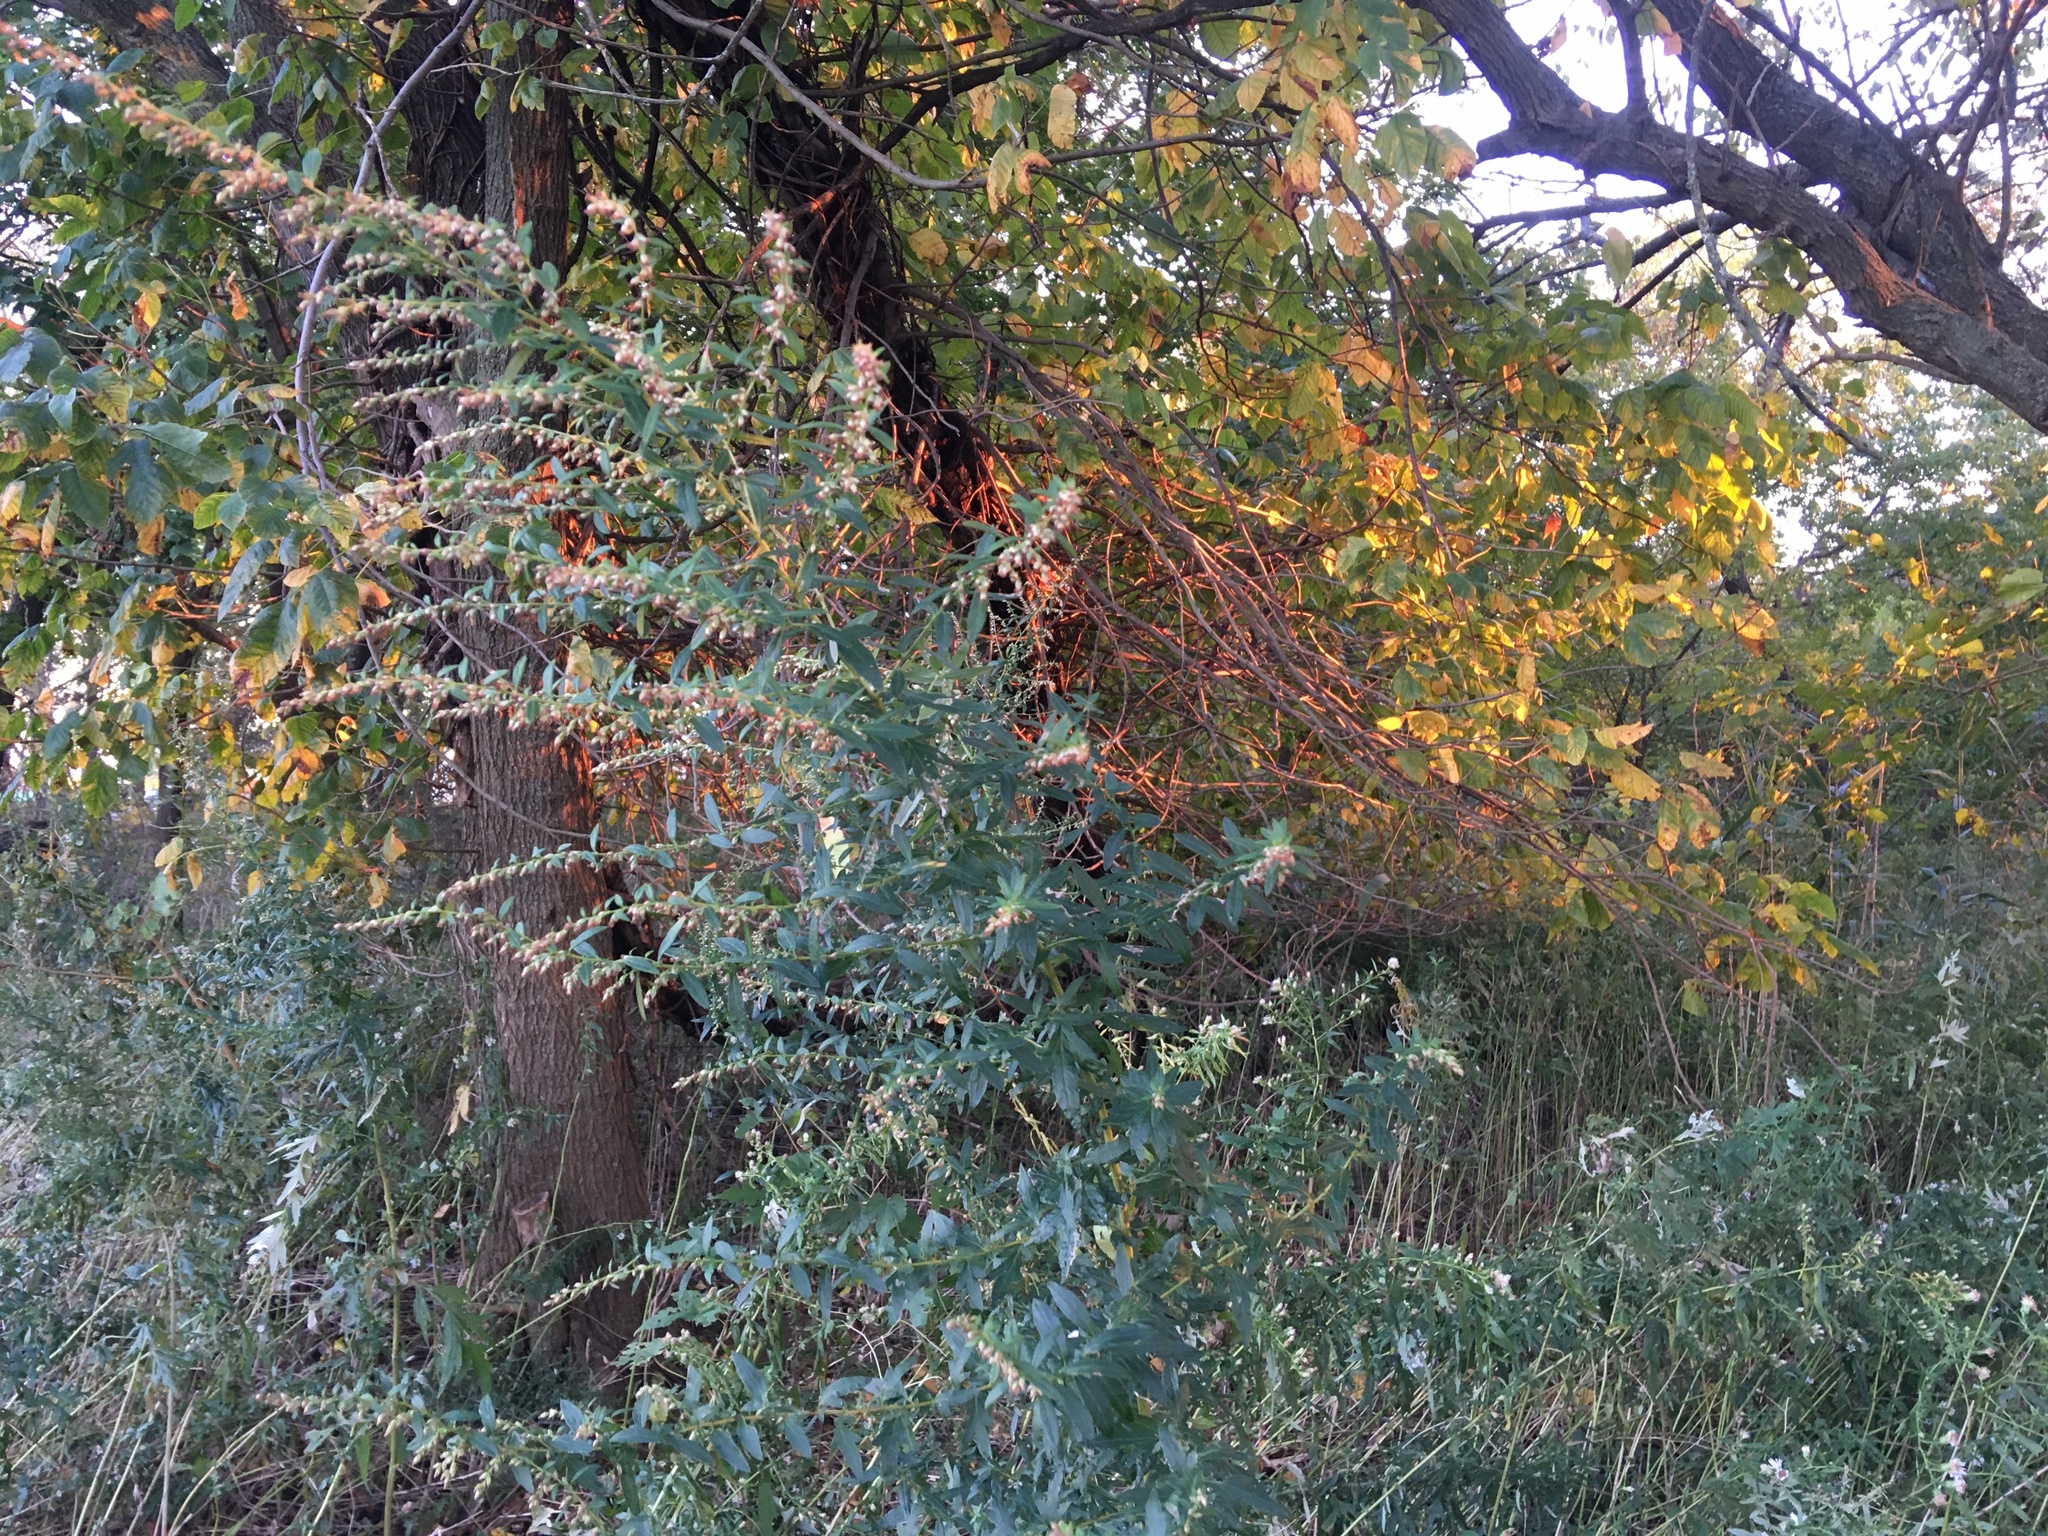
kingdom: Plantae
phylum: Tracheophyta
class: Magnoliopsida
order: Asterales
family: Asteraceae
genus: Artemisia
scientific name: Artemisia vulgaris
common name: Mugwort
